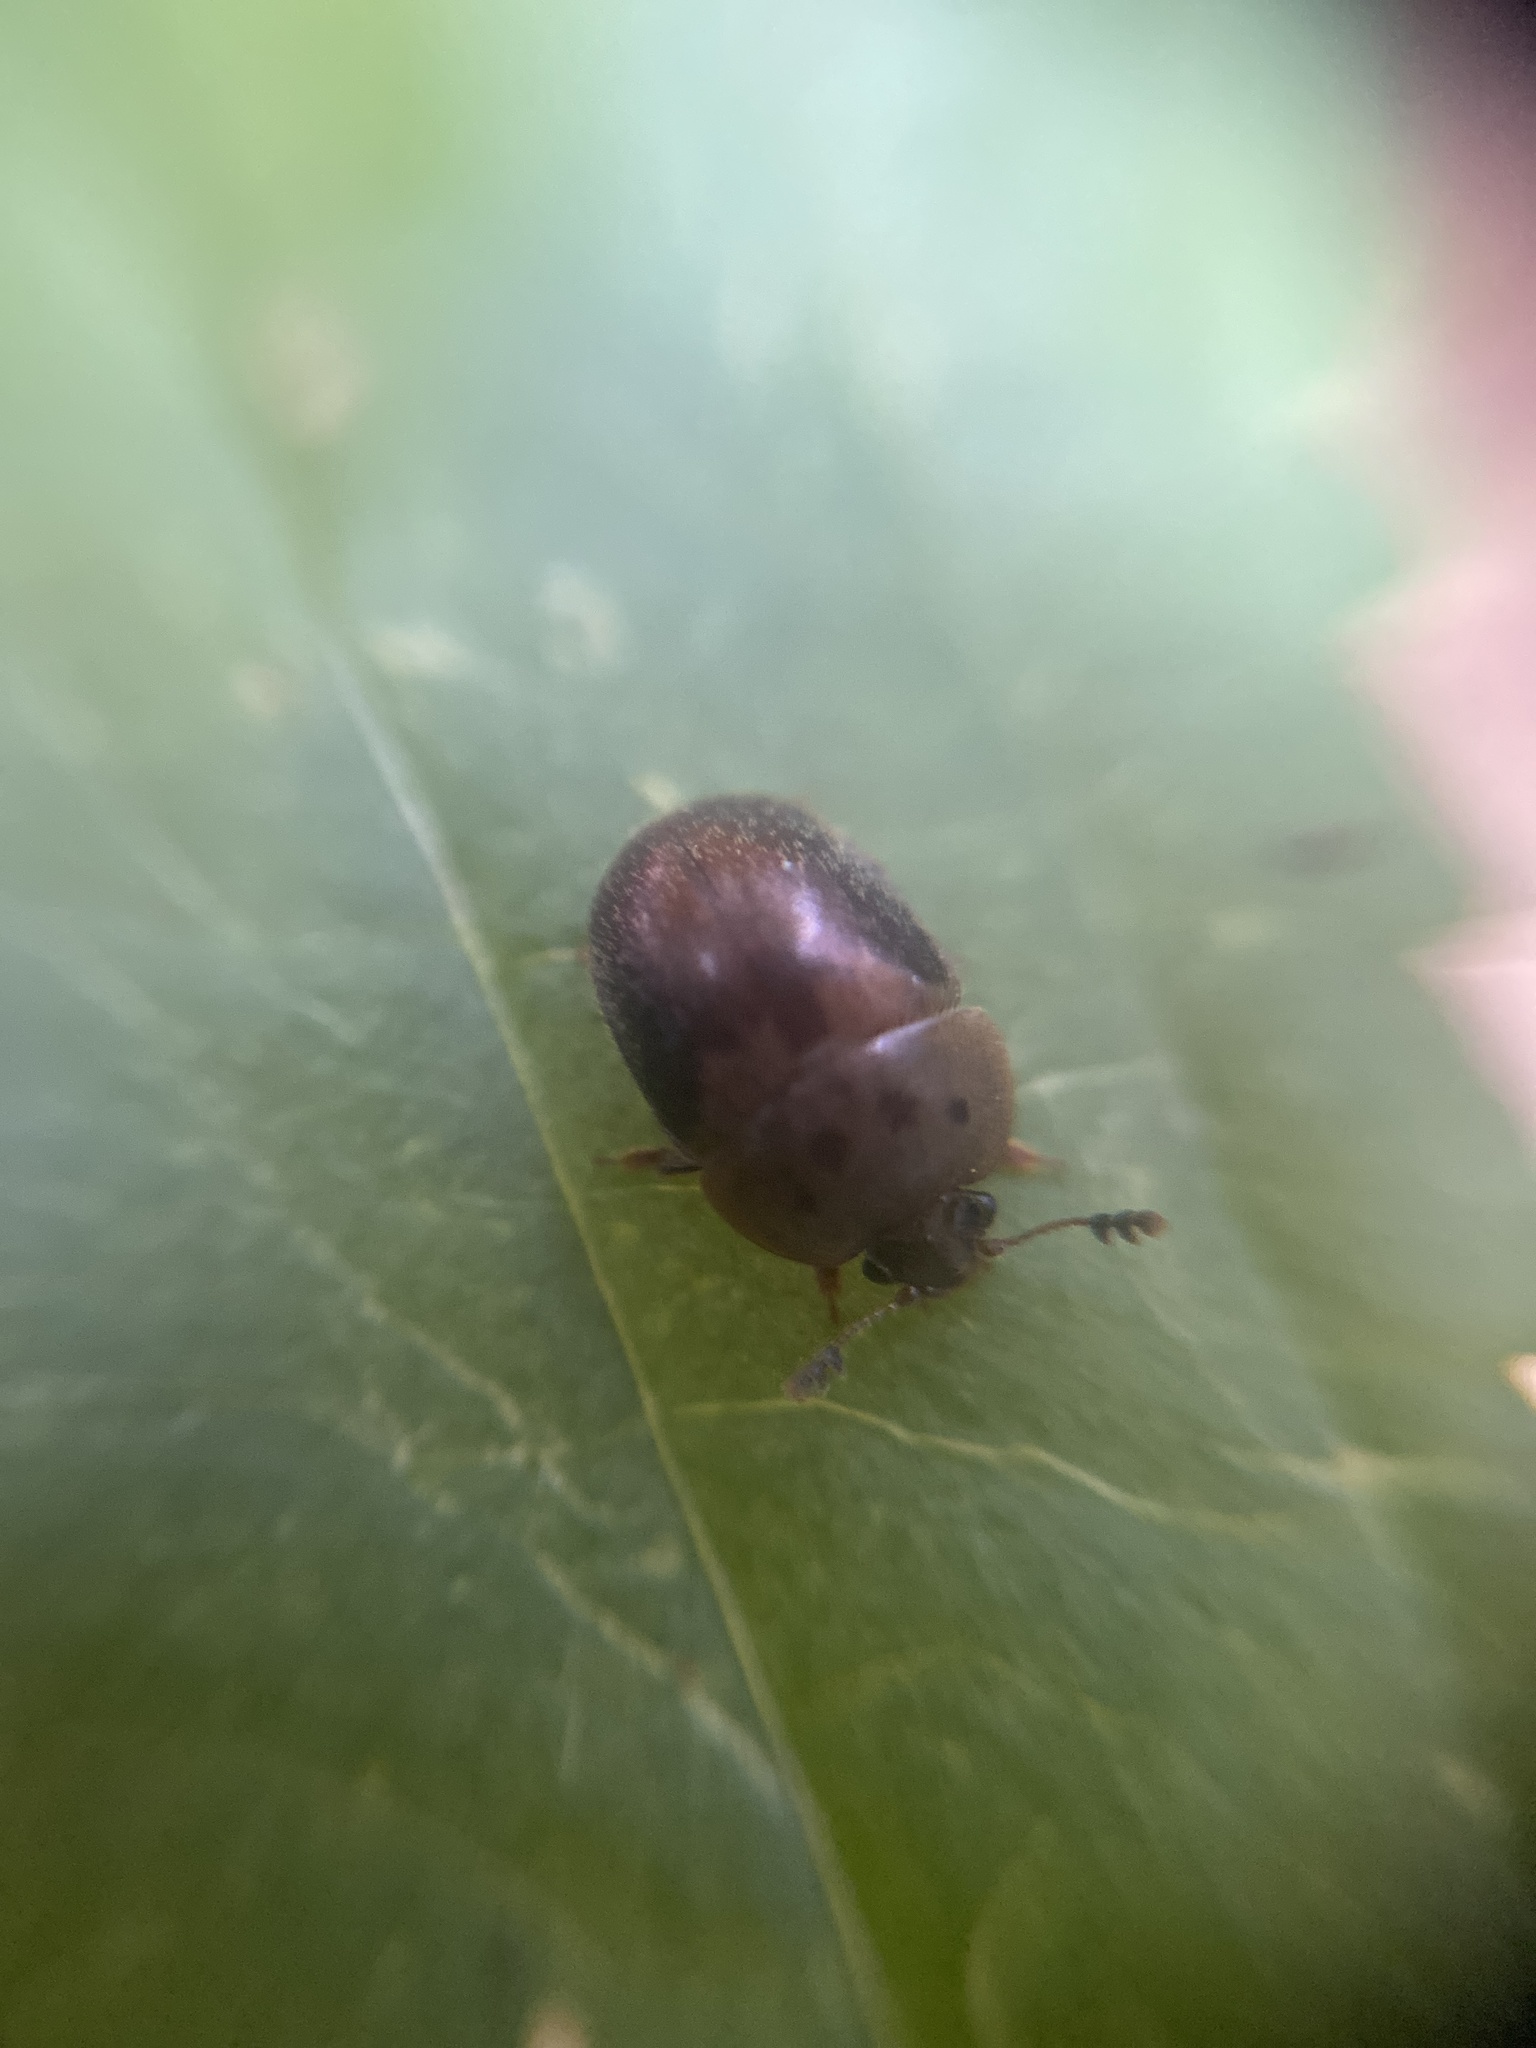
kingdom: Animalia
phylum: Arthropoda
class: Insecta
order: Coleoptera
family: Nitidulidae
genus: Cychramus
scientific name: Cychramus variegatus
